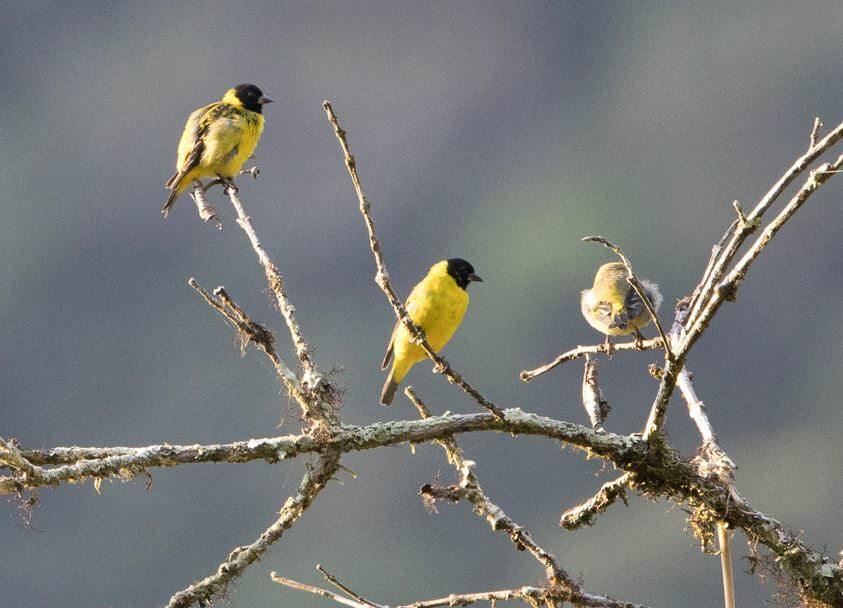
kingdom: Animalia
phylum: Chordata
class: Aves
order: Passeriformes
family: Fringillidae
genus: Spinus
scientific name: Spinus magellanicus
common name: Hooded siskin
